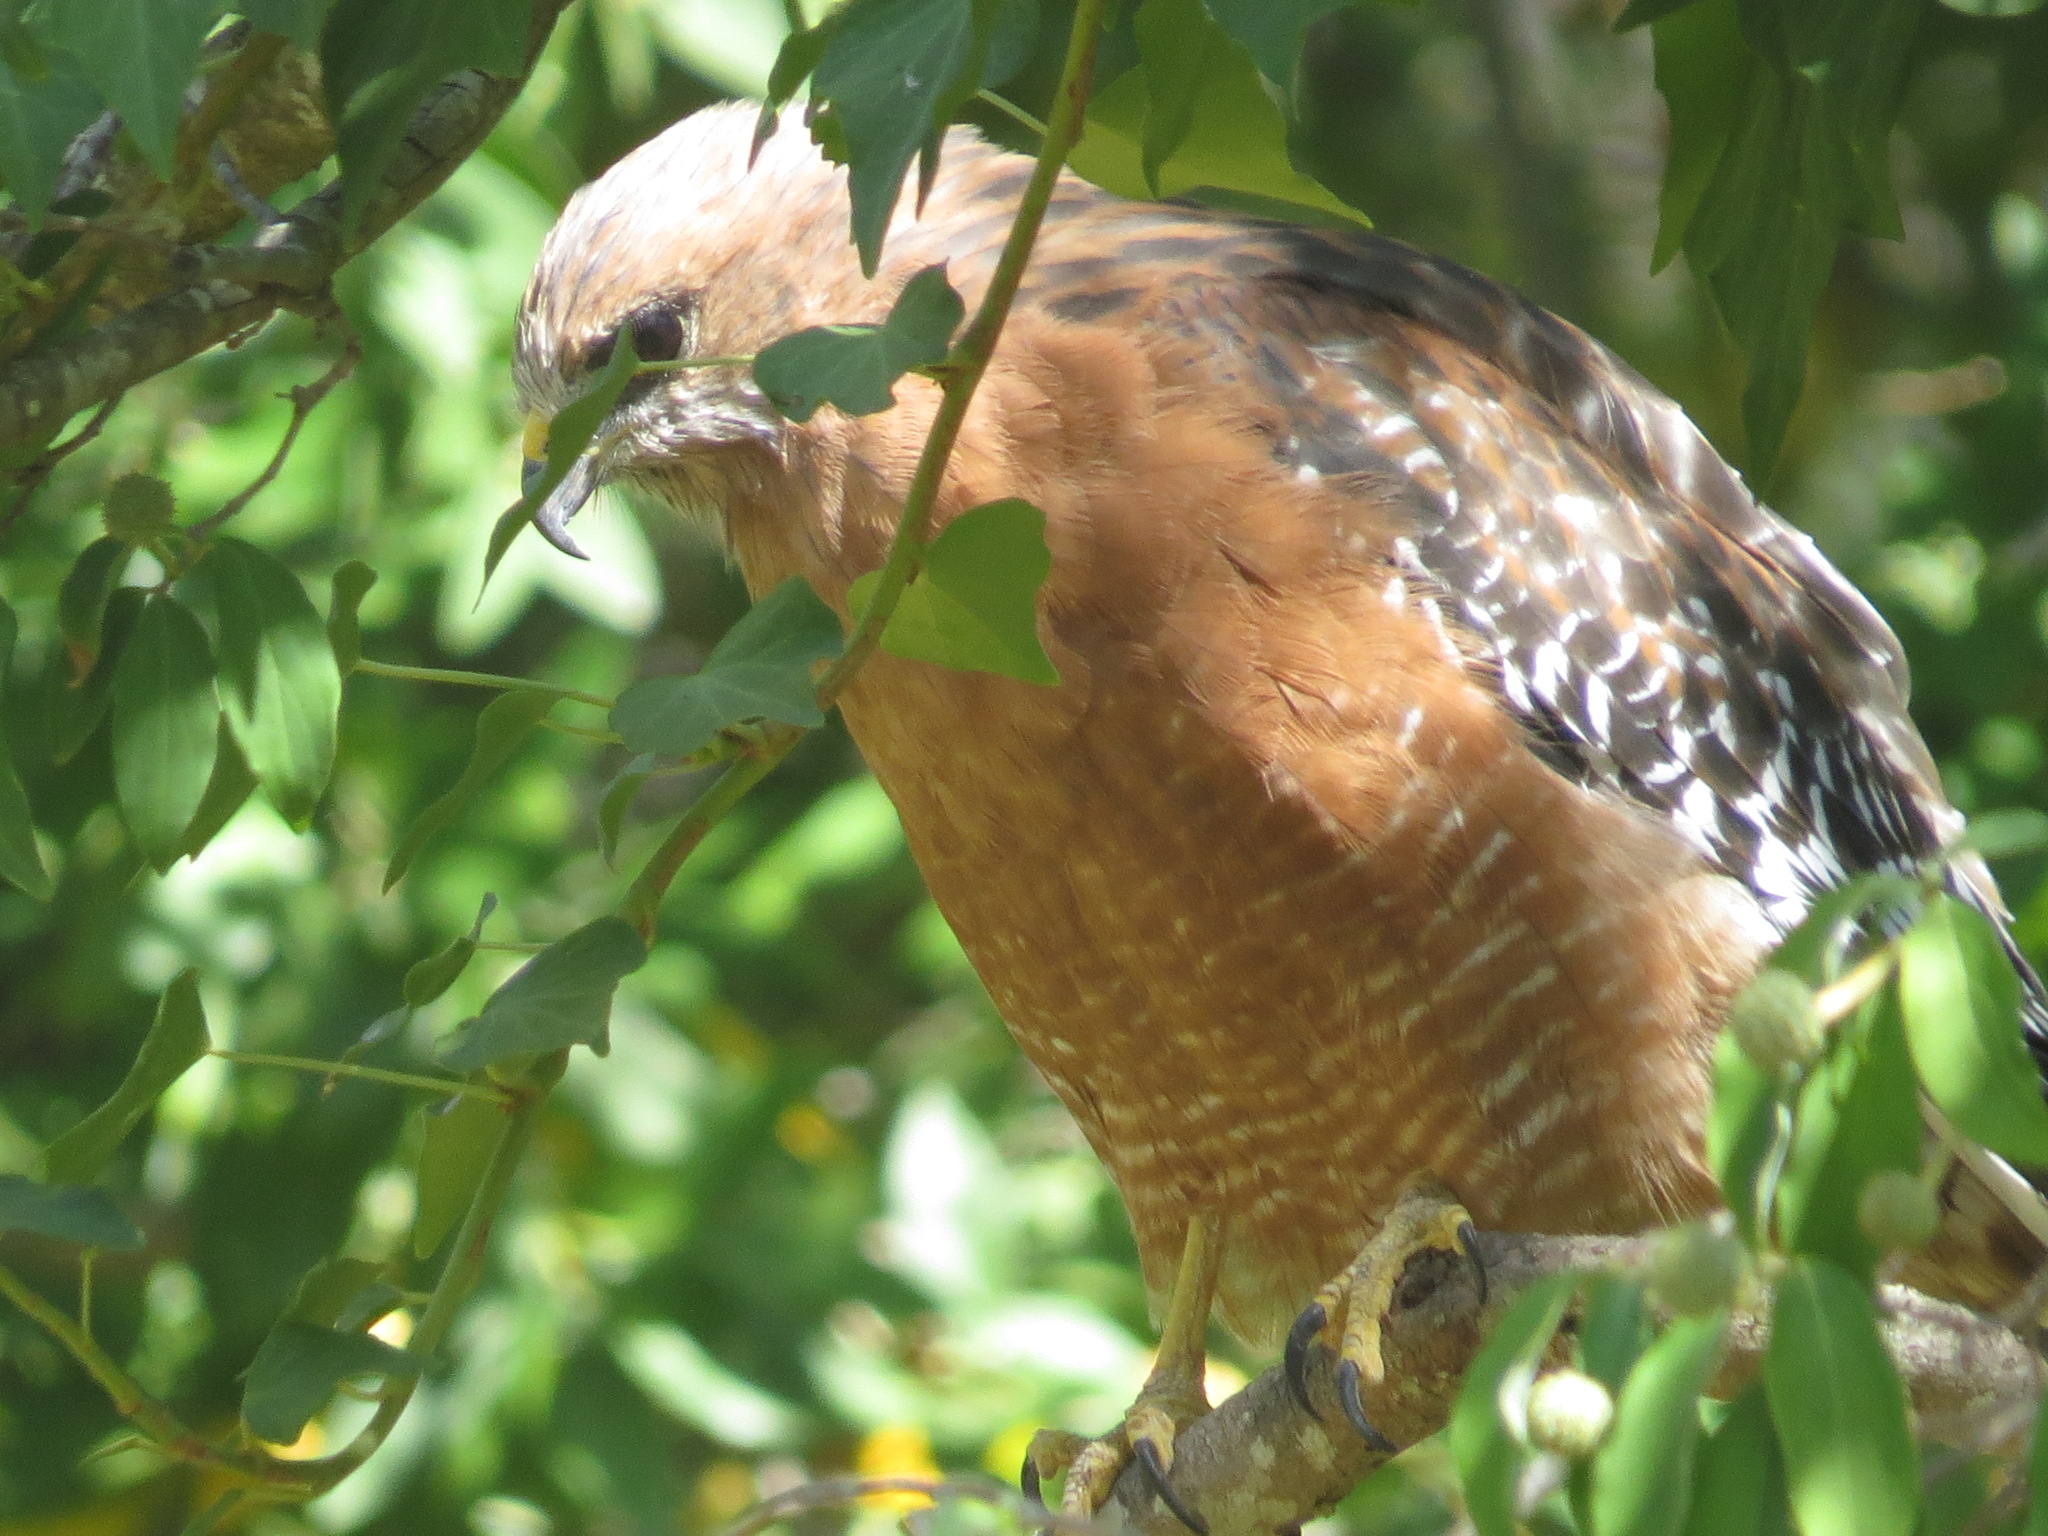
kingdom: Animalia
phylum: Chordata
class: Aves
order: Accipitriformes
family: Accipitridae
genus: Buteo
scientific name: Buteo lineatus
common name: Red-shouldered hawk
